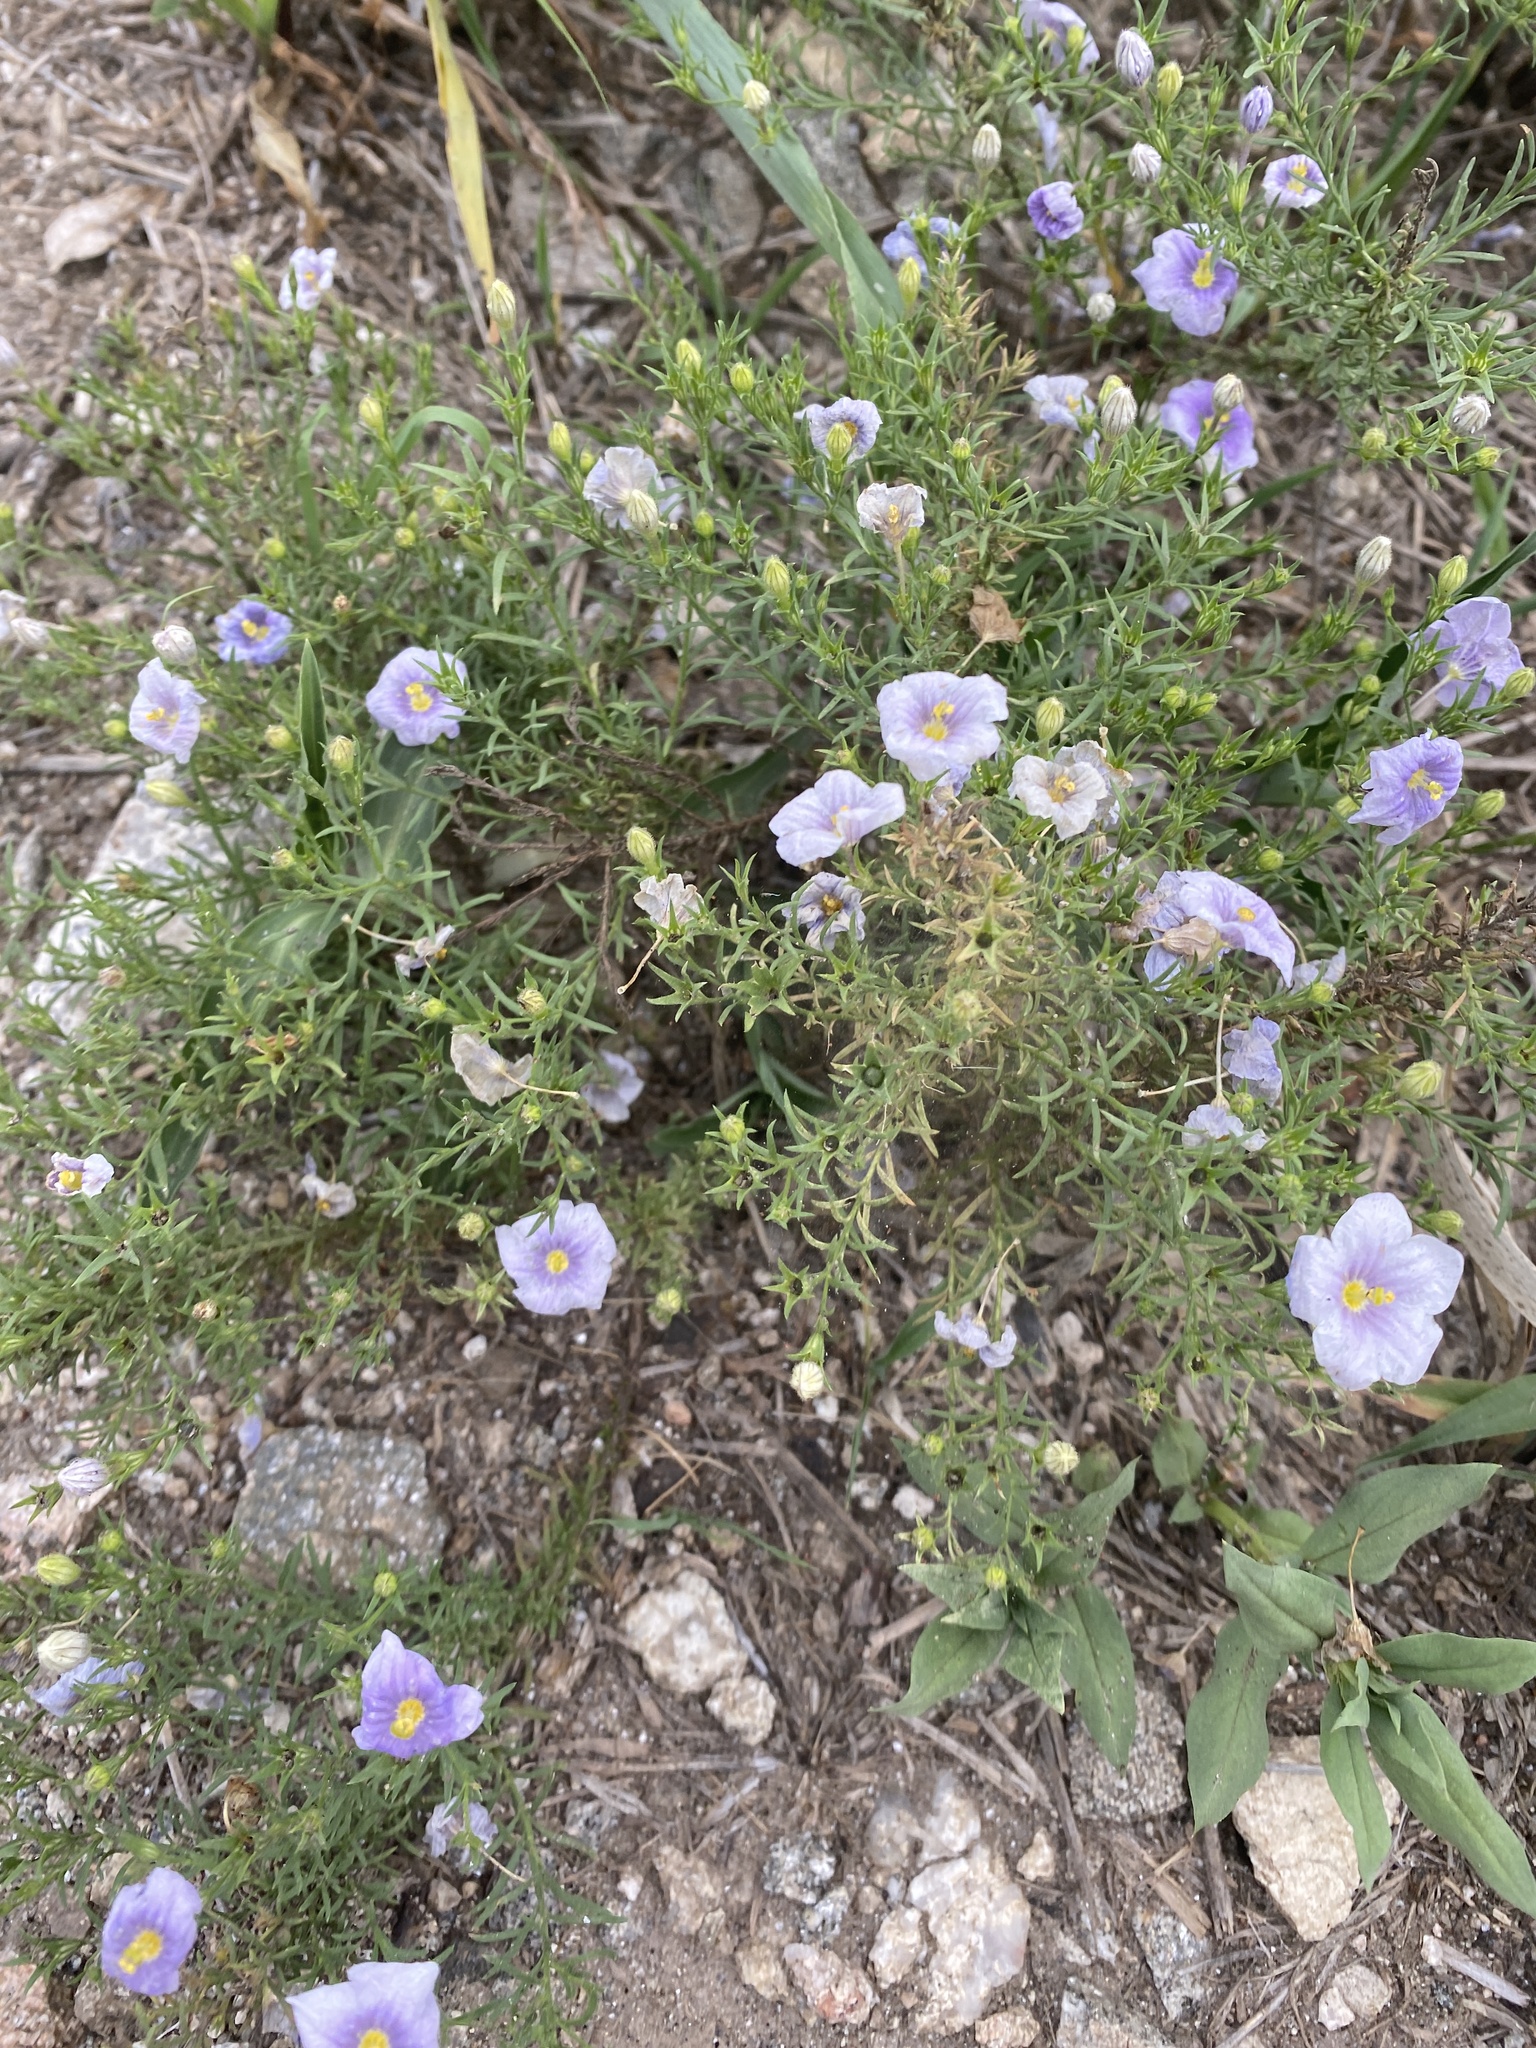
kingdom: Plantae
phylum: Tracheophyta
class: Magnoliopsida
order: Solanales
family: Solanaceae
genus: Nierembergia
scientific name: Nierembergia linariifolia
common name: Dwarf cupflower
